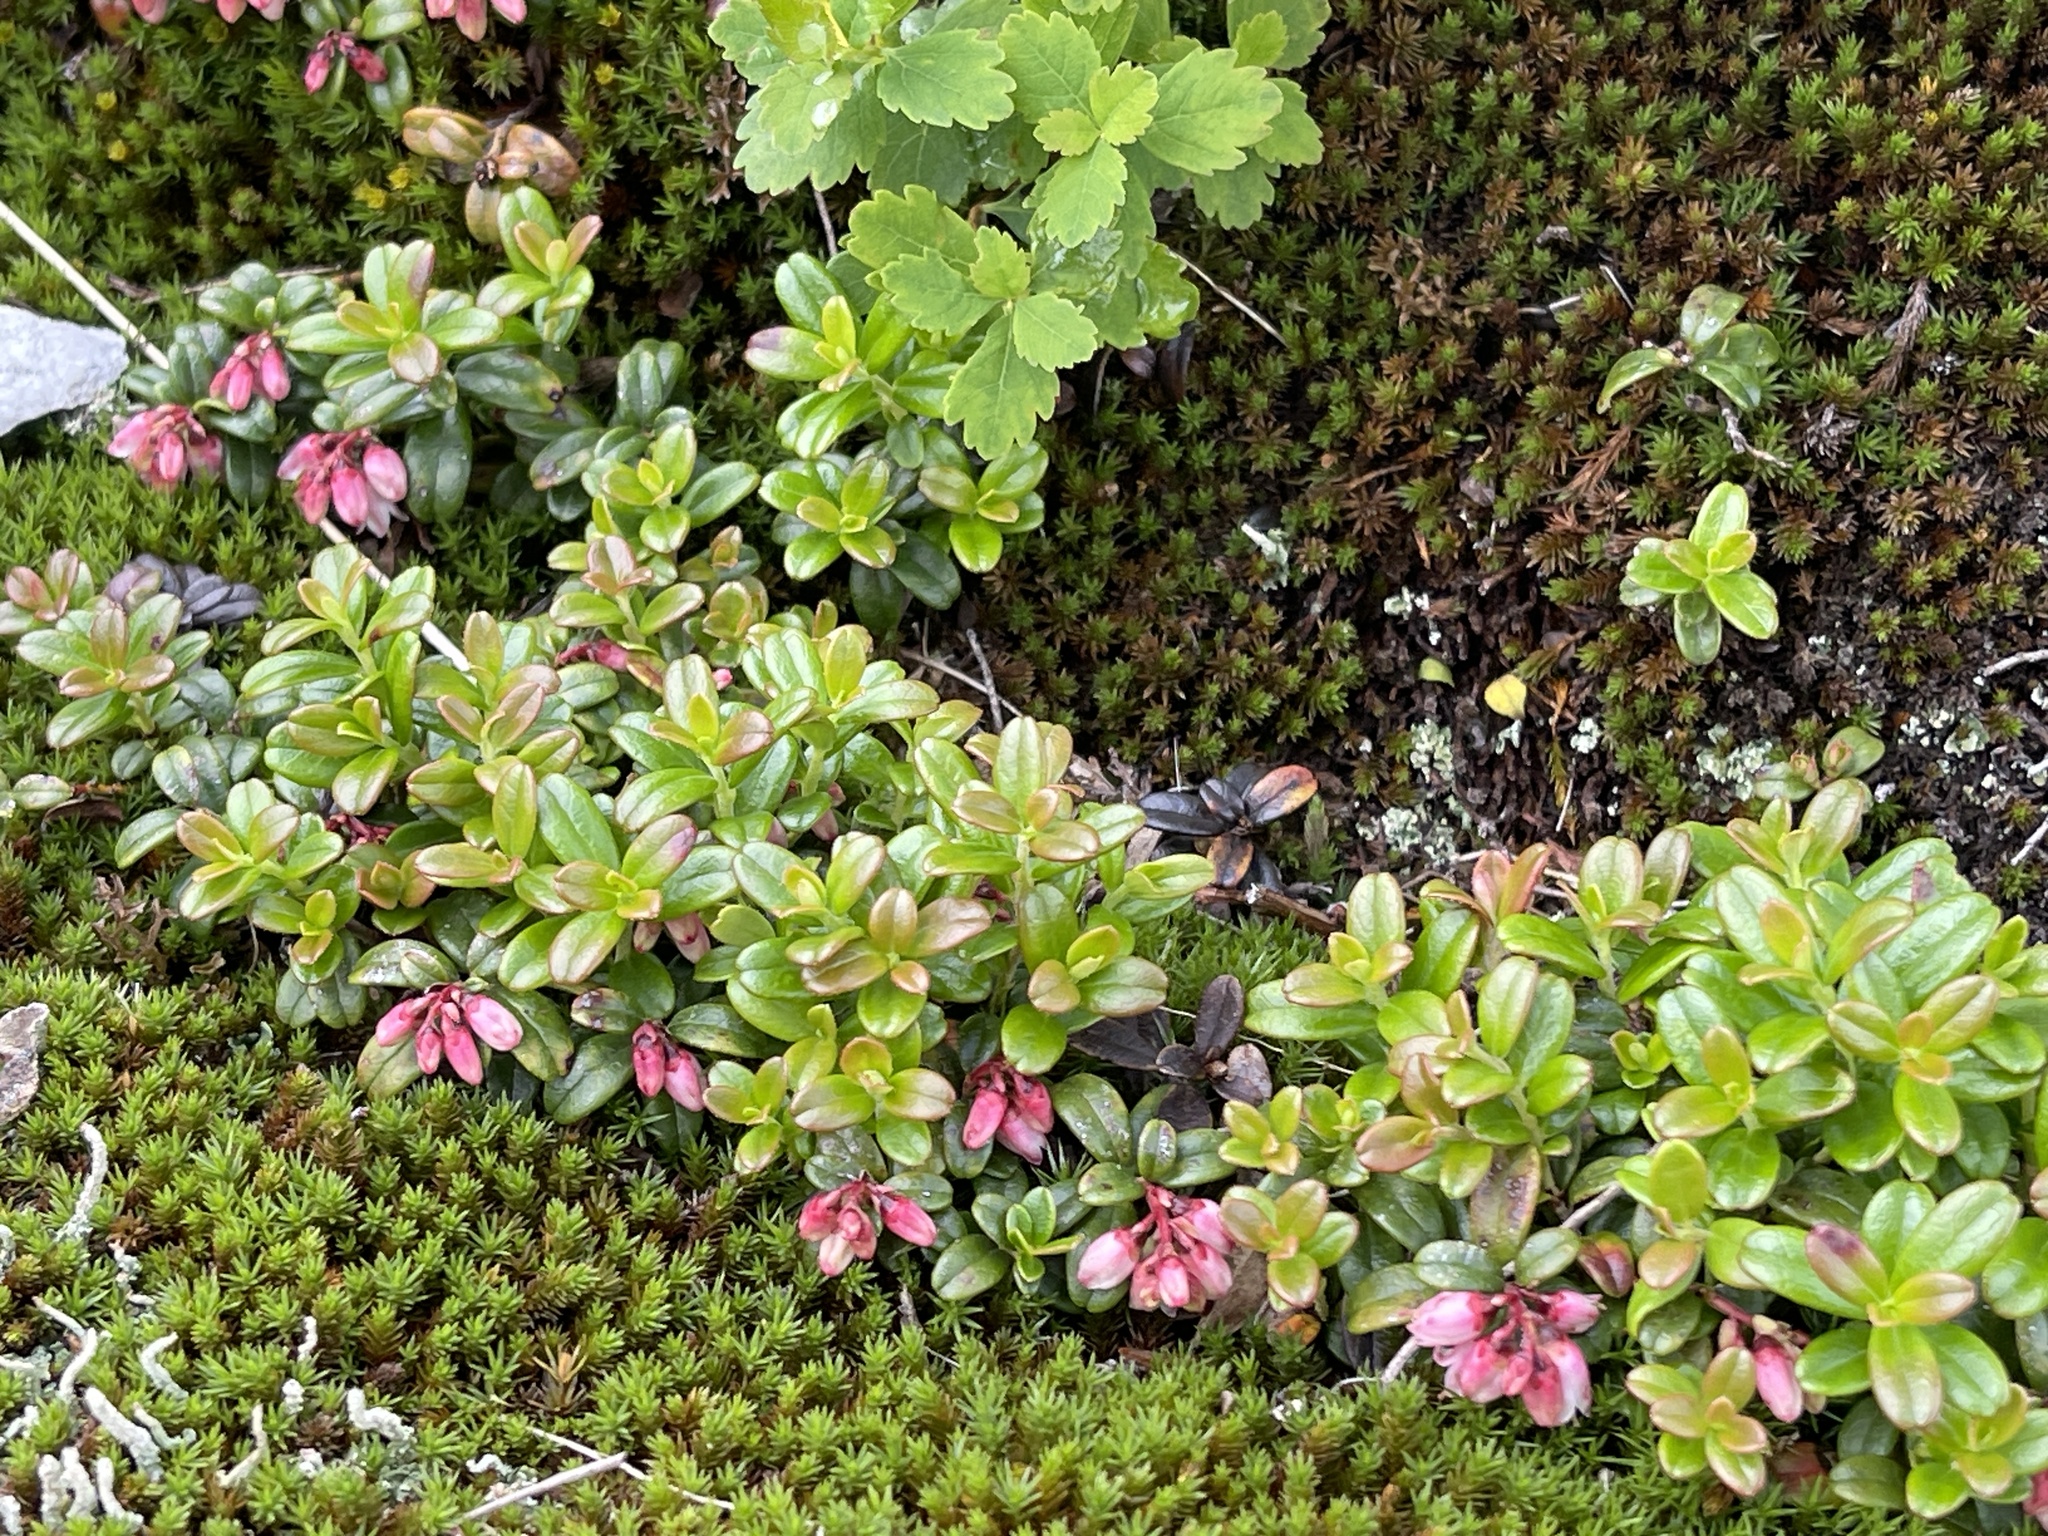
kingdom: Plantae
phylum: Tracheophyta
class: Magnoliopsida
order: Ericales
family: Ericaceae
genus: Vaccinium
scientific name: Vaccinium vitis-idaea
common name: Cowberry
